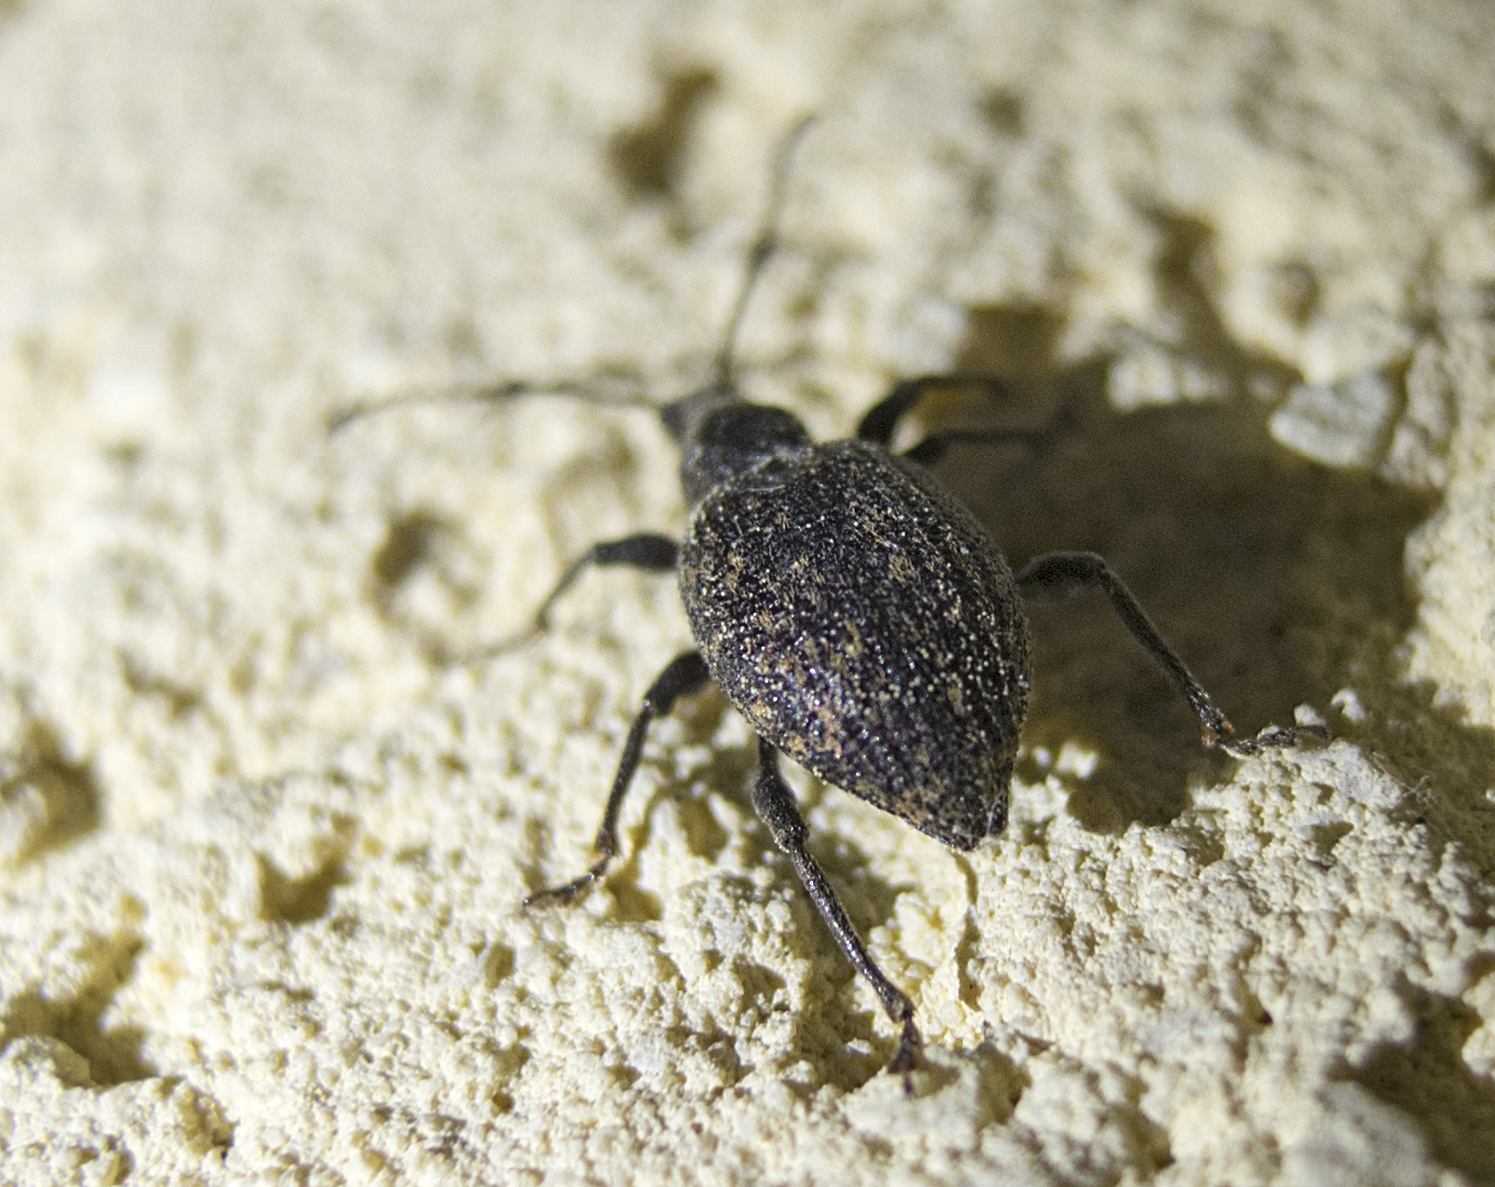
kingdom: Animalia
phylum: Arthropoda
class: Insecta
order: Coleoptera
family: Curculionidae
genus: Otiorhynchus
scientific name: Otiorhynchus aurifer
